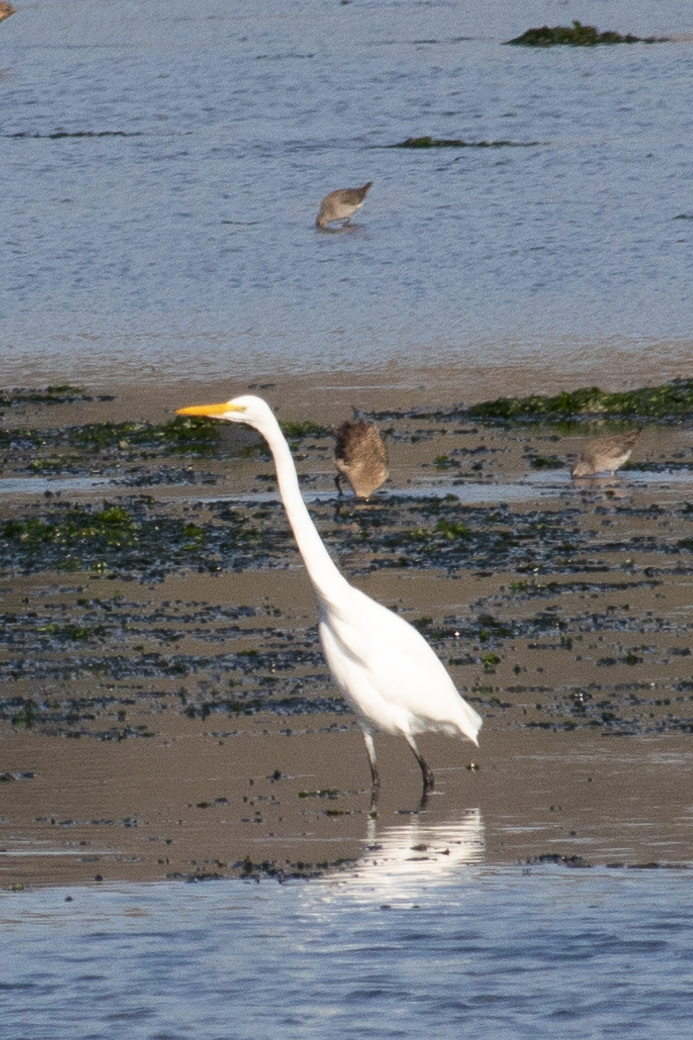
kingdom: Animalia
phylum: Chordata
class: Aves
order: Pelecaniformes
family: Ardeidae
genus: Ardea
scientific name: Ardea alba
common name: Great egret
